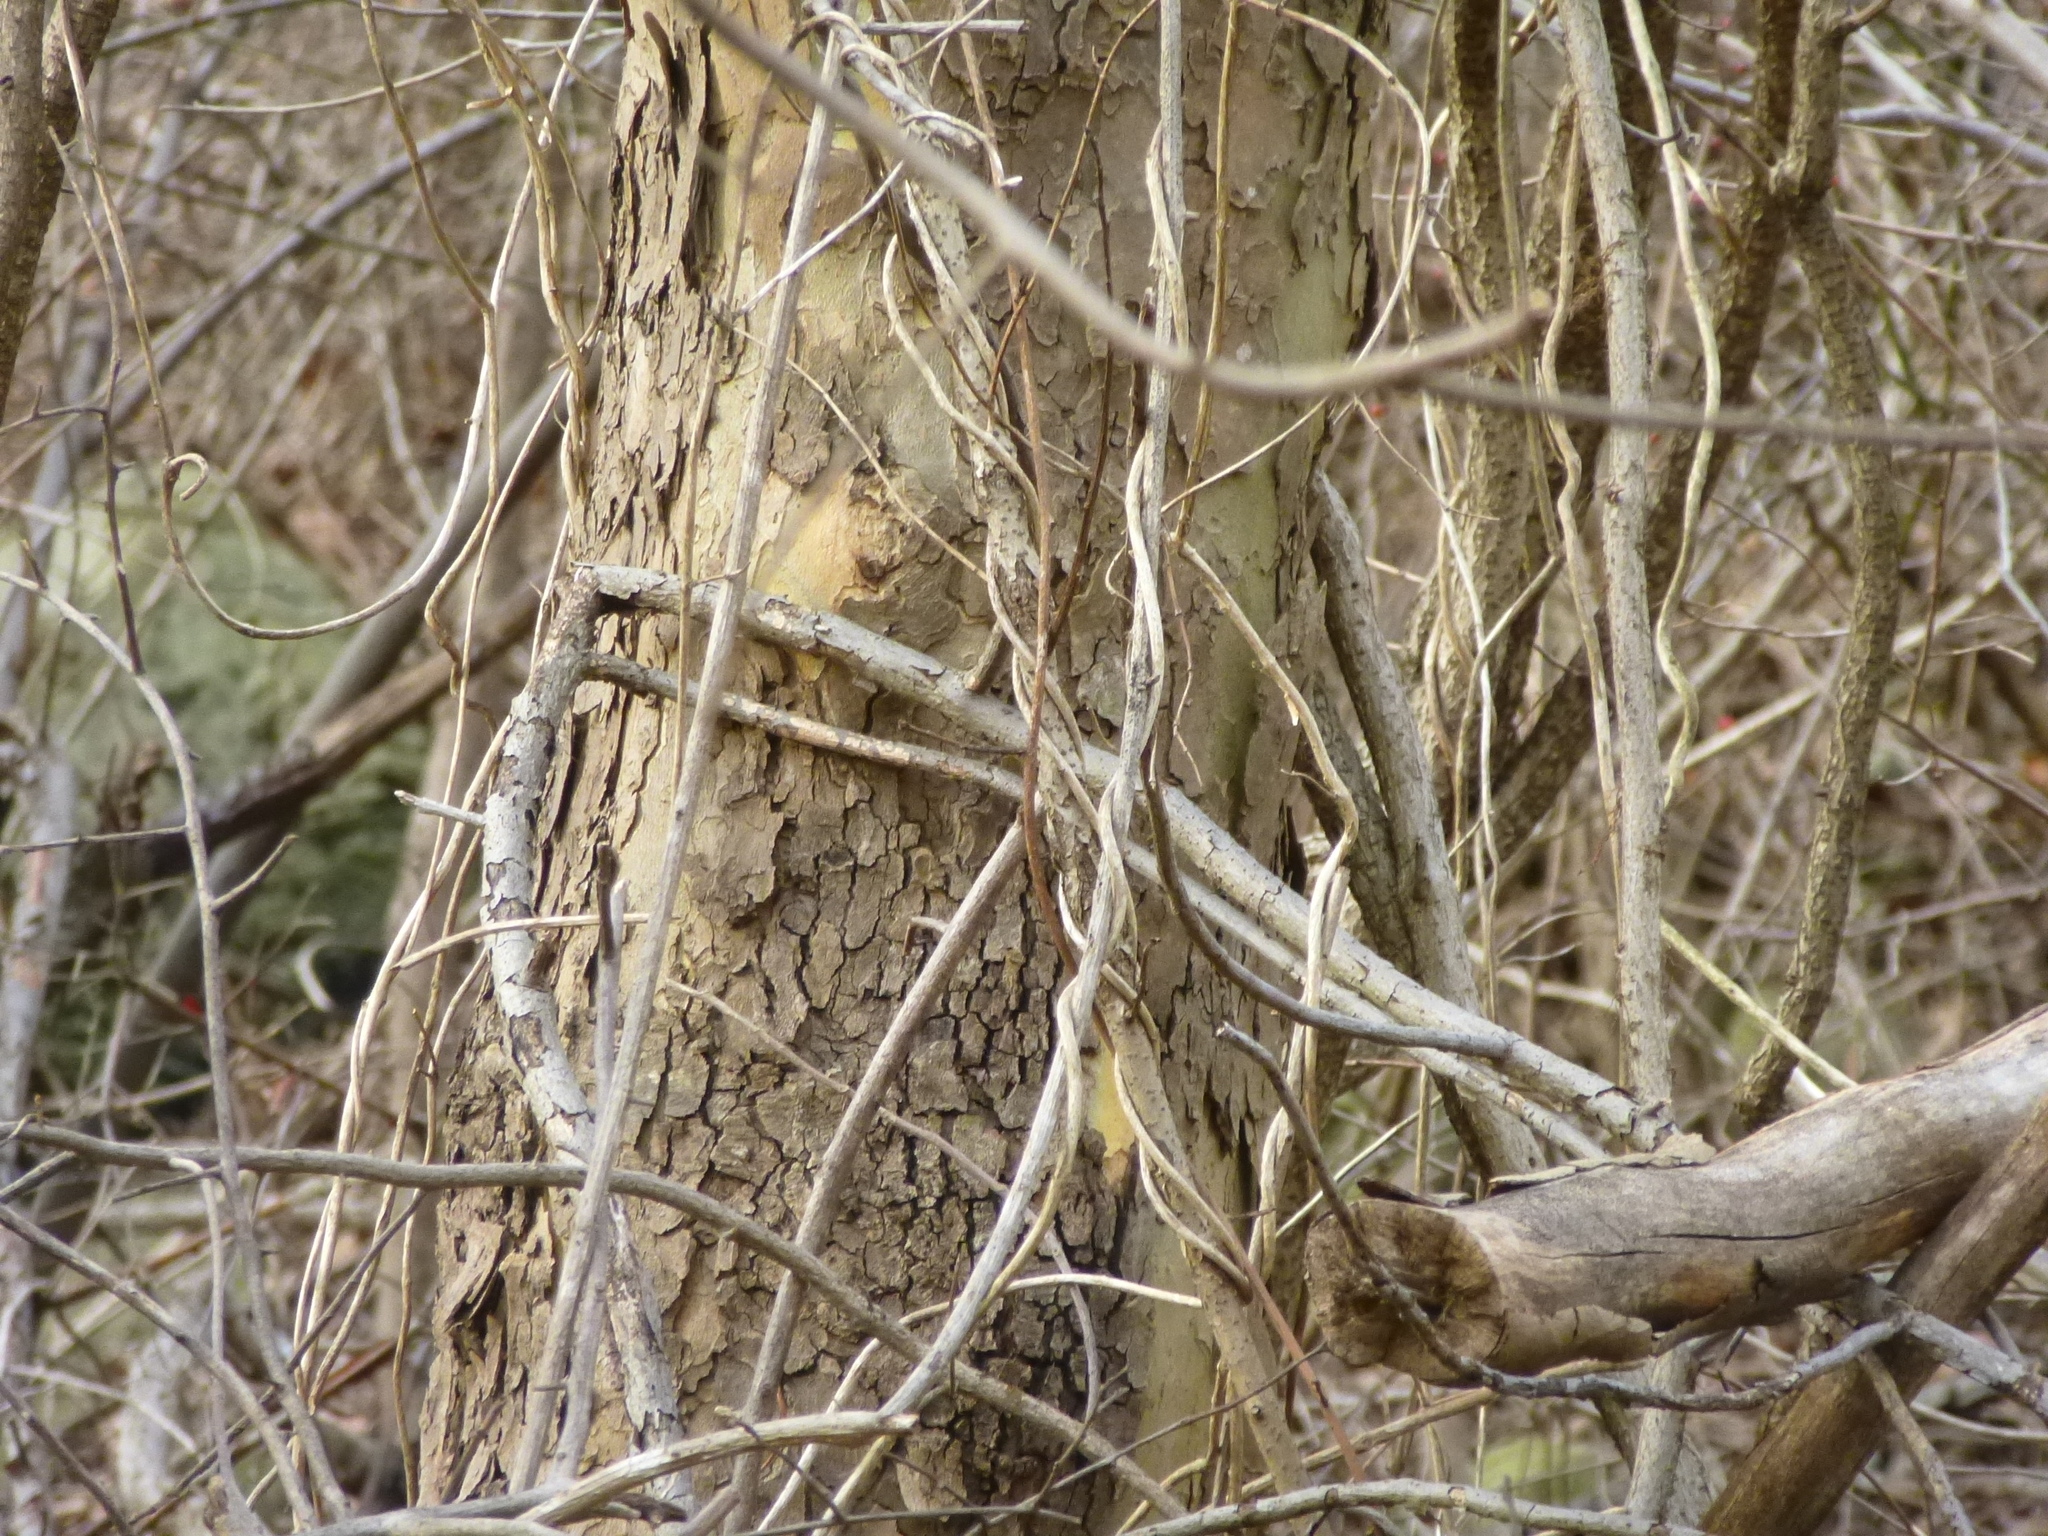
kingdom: Plantae
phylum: Tracheophyta
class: Magnoliopsida
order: Proteales
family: Platanaceae
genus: Platanus
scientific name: Platanus occidentalis
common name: American sycamore
